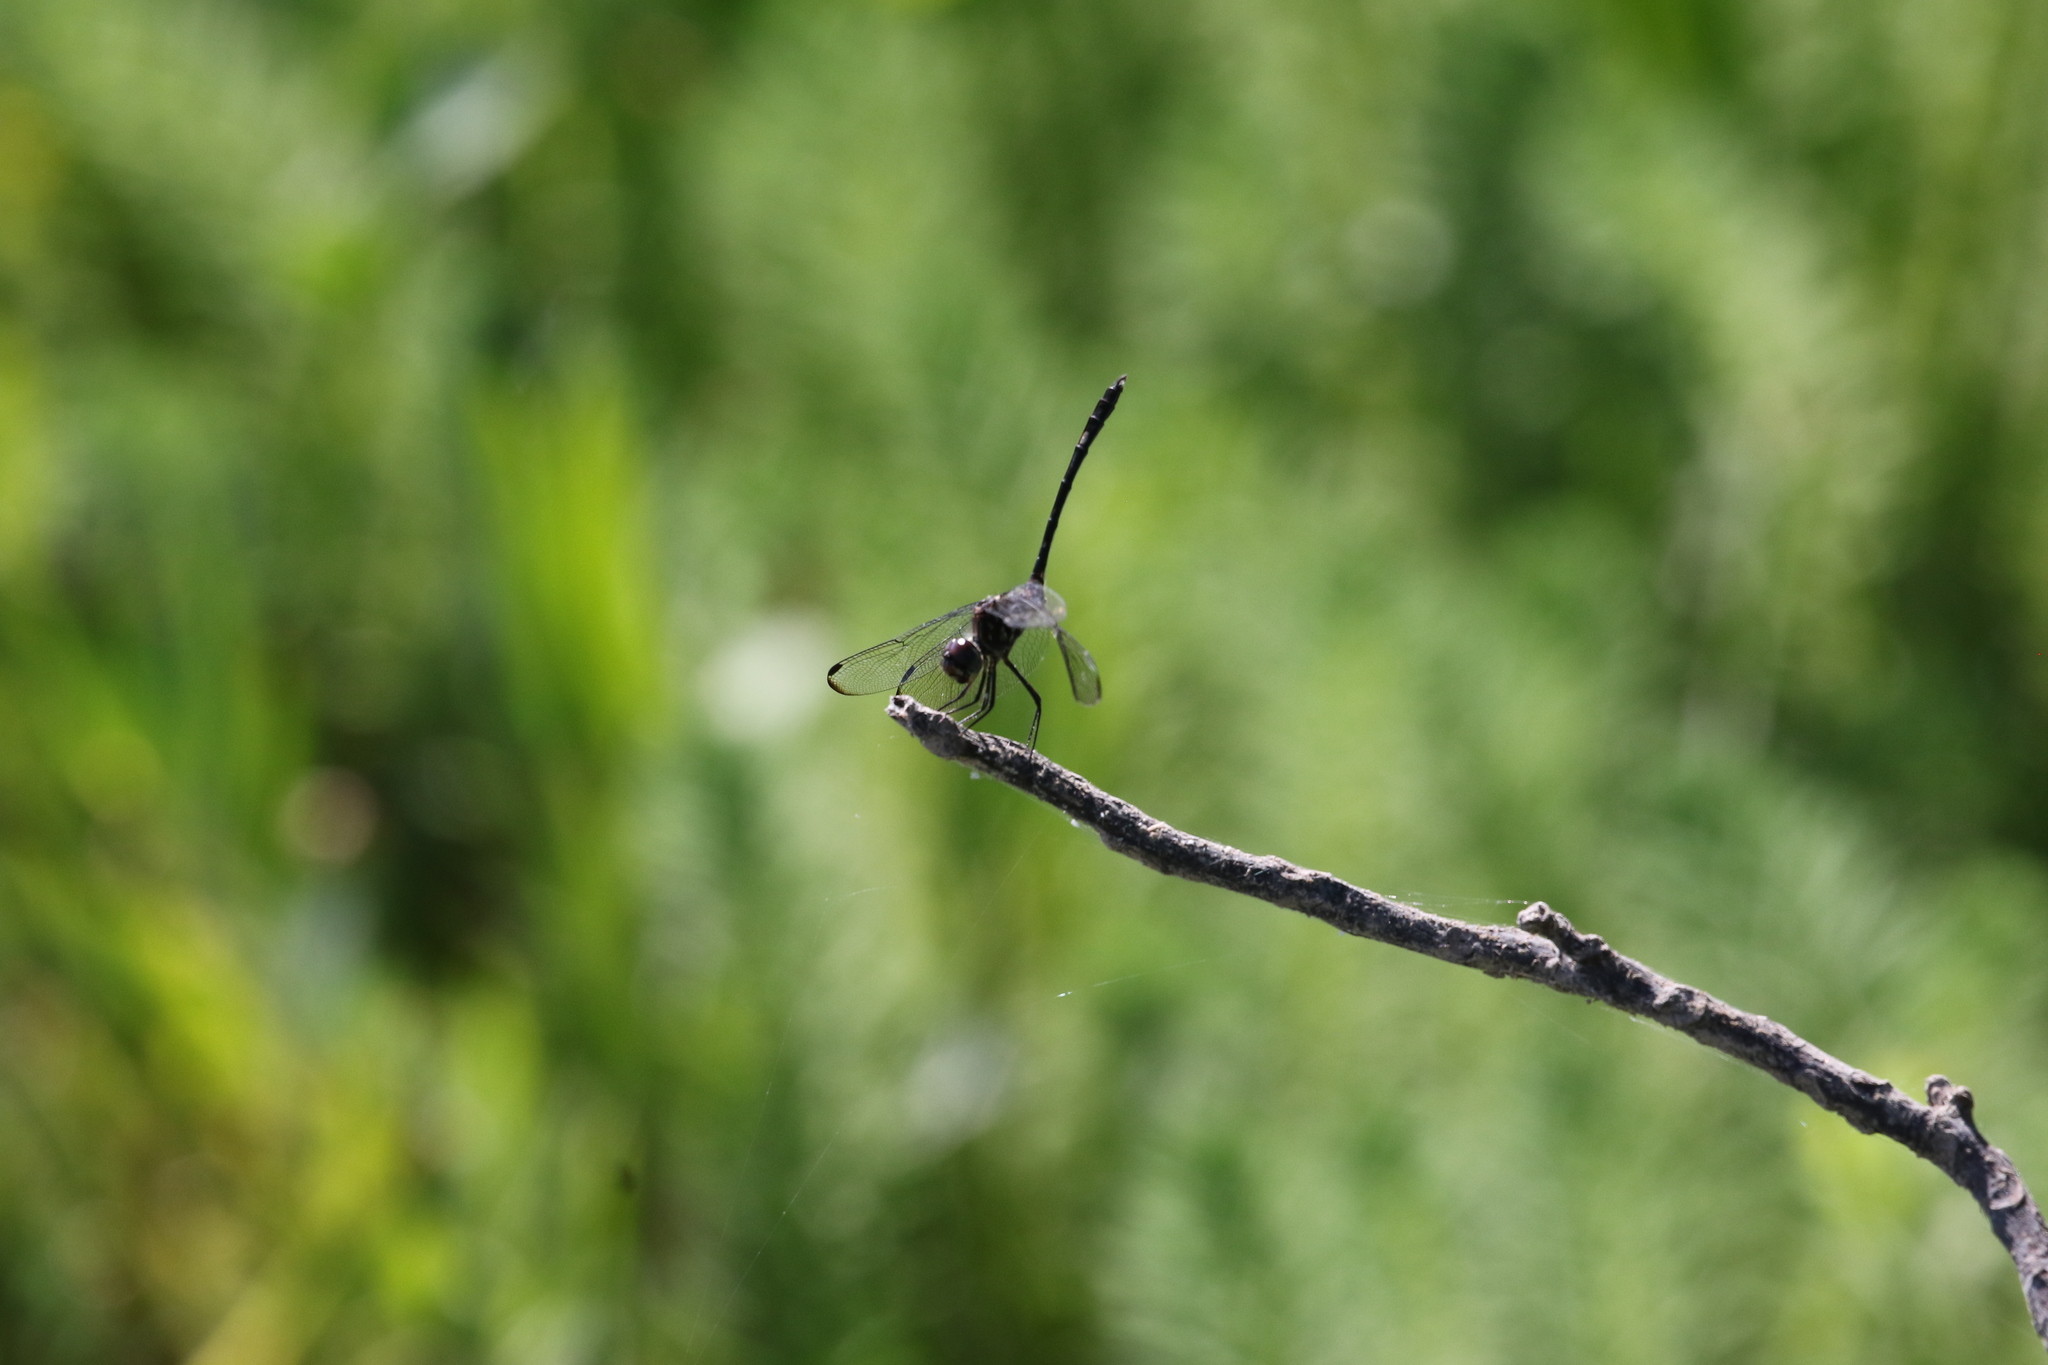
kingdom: Animalia
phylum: Arthropoda
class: Insecta
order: Odonata
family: Libellulidae
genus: Dythemis
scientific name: Dythemis velox
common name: Swift setwing
